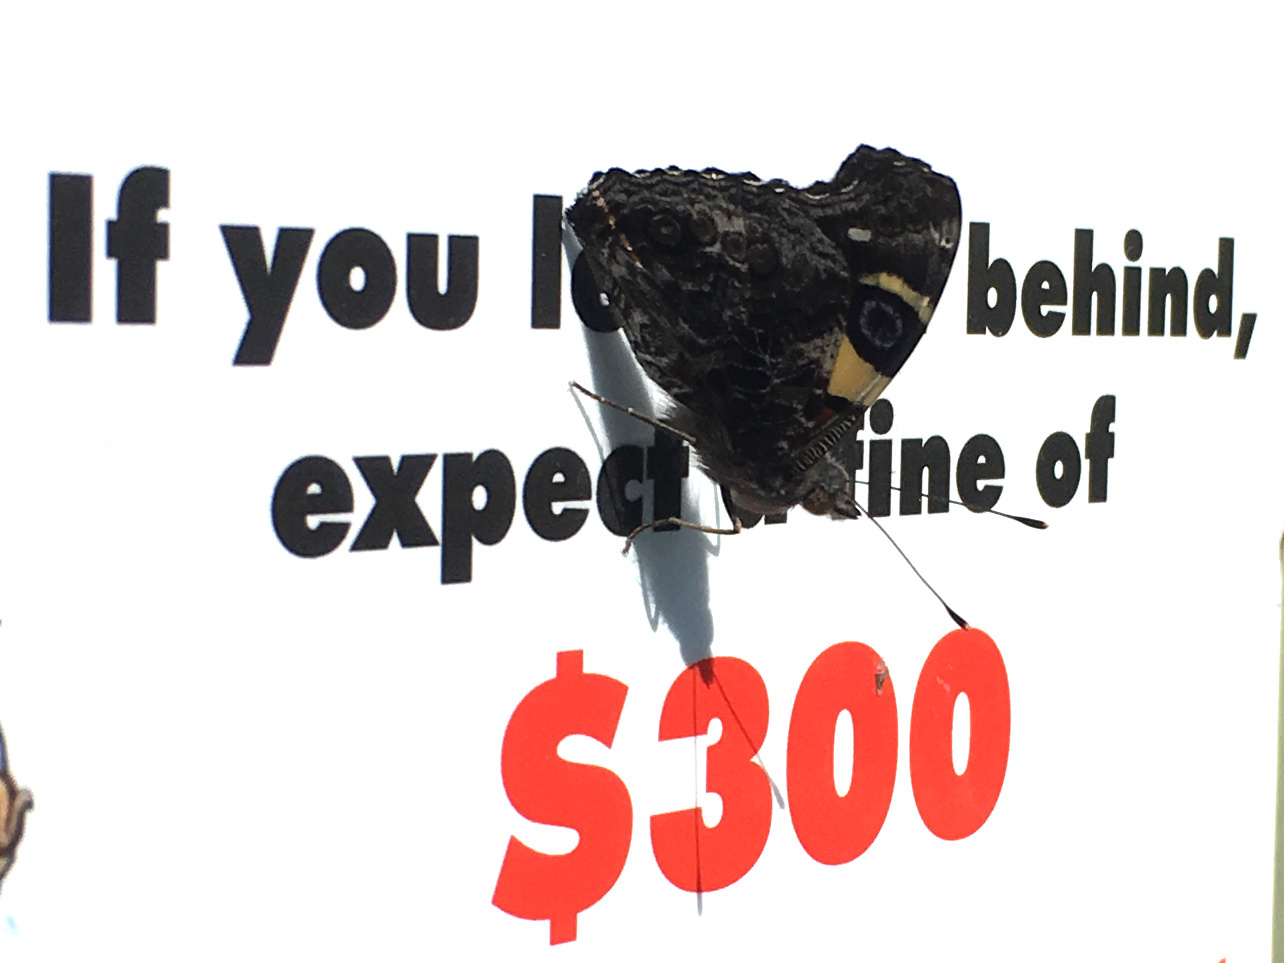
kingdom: Animalia
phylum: Arthropoda
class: Insecta
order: Lepidoptera
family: Nymphalidae
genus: Vanessa
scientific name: Vanessa itea
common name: Yellow admiral
